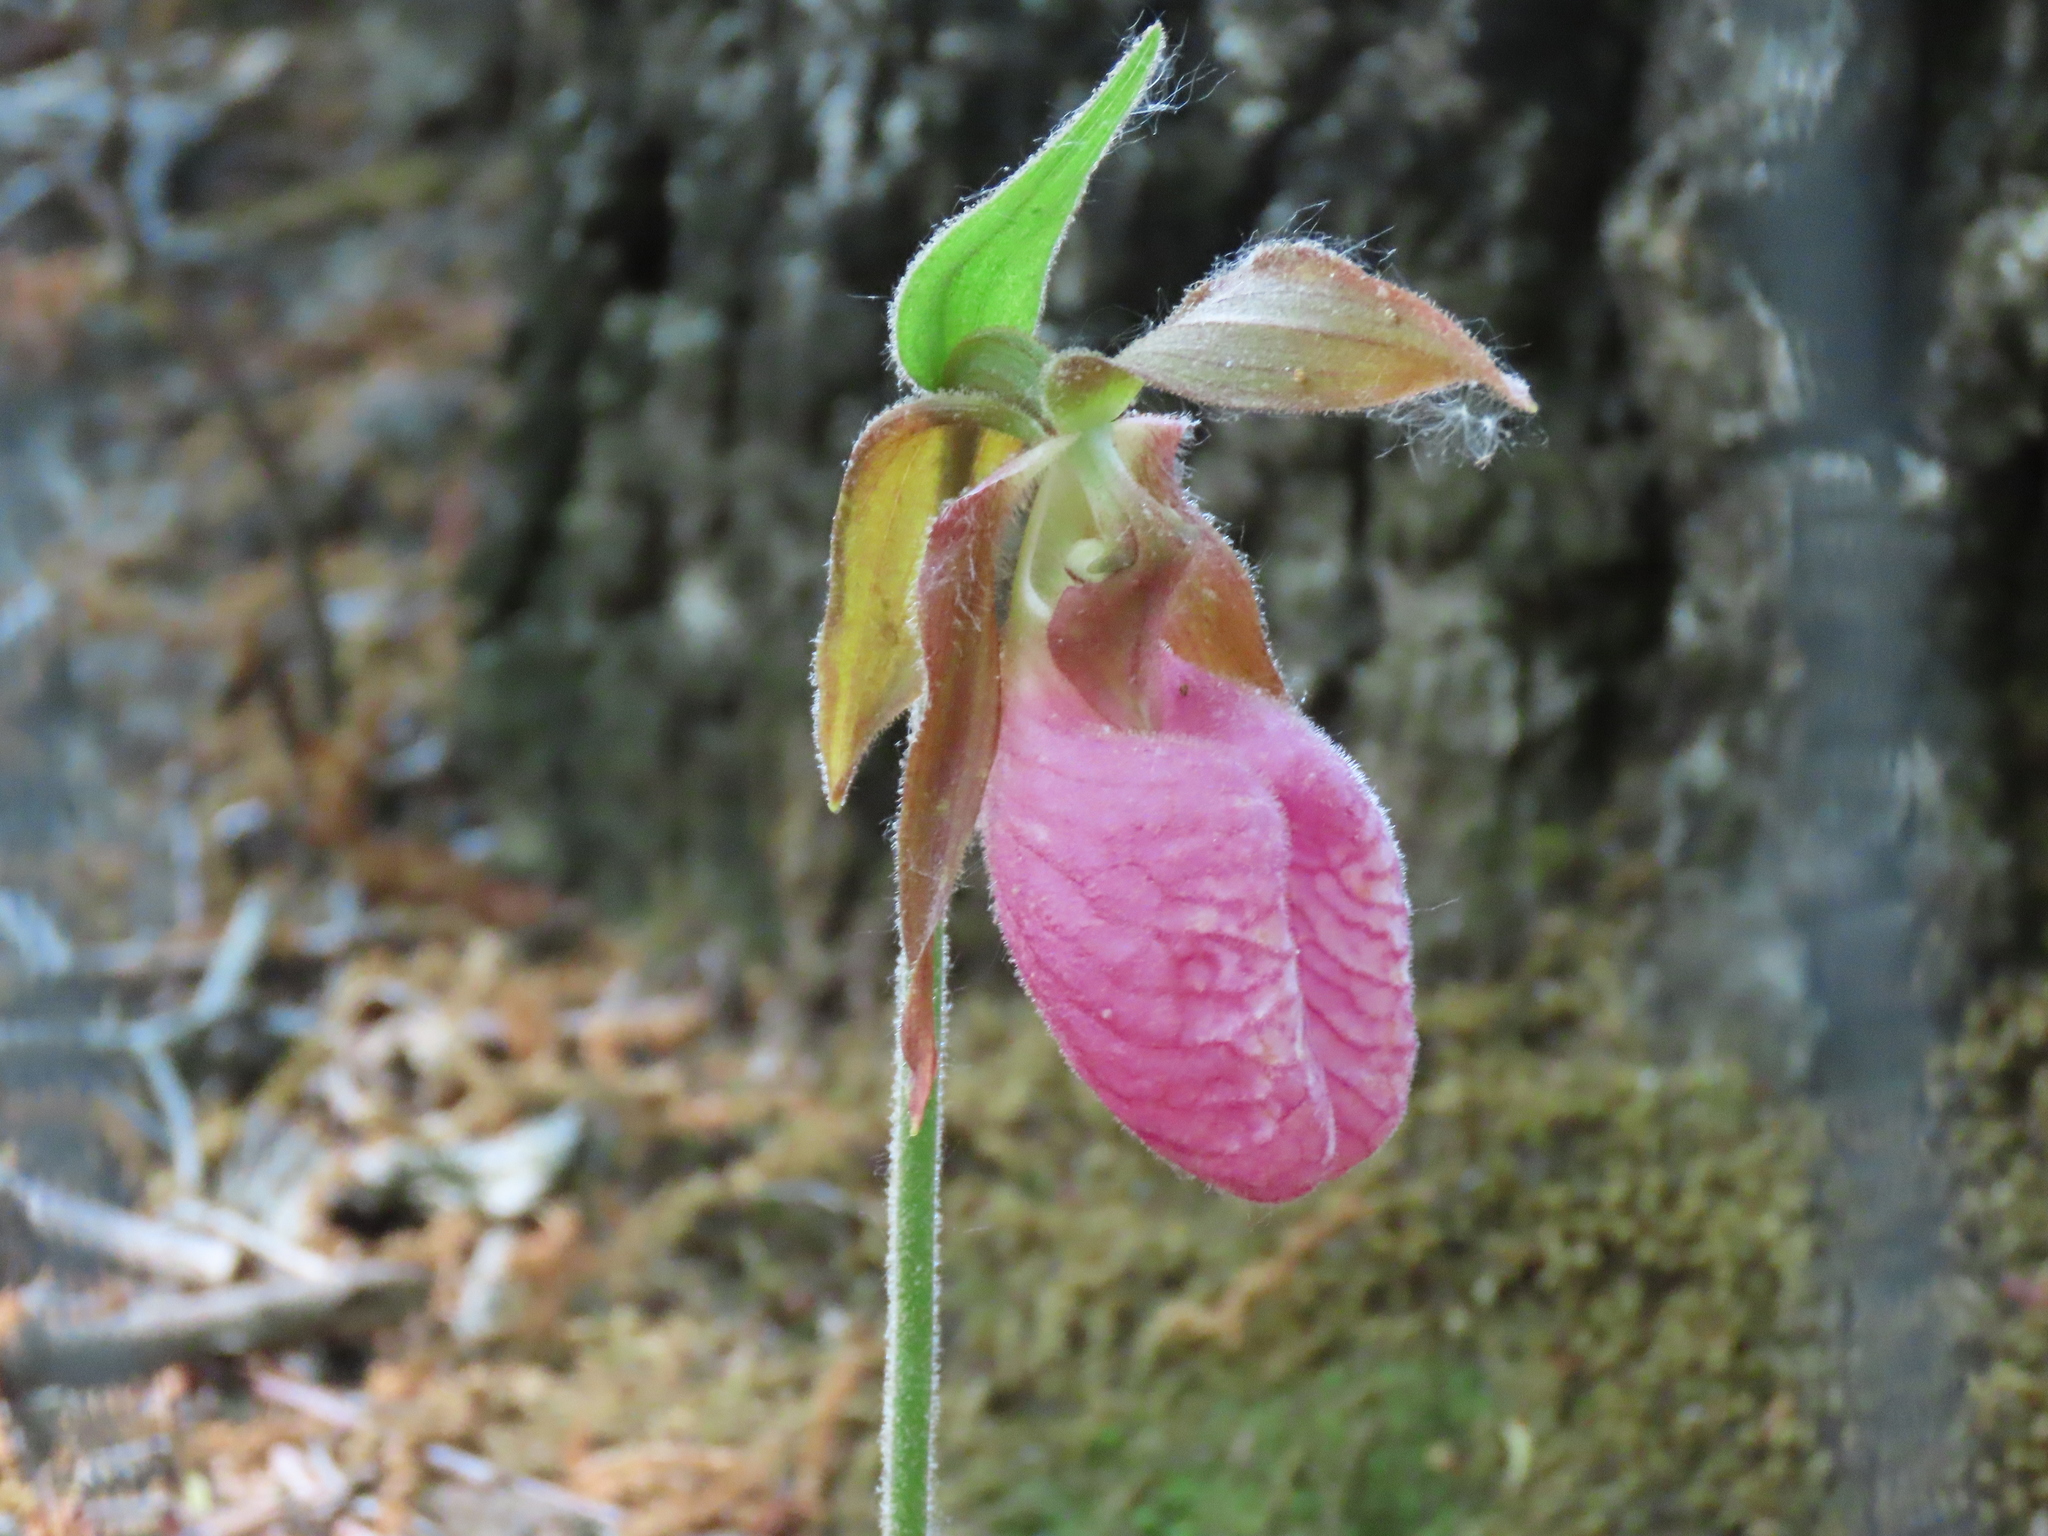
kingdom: Plantae
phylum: Tracheophyta
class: Liliopsida
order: Asparagales
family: Orchidaceae
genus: Cypripedium
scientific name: Cypripedium acaule
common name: Pink lady's-slipper
